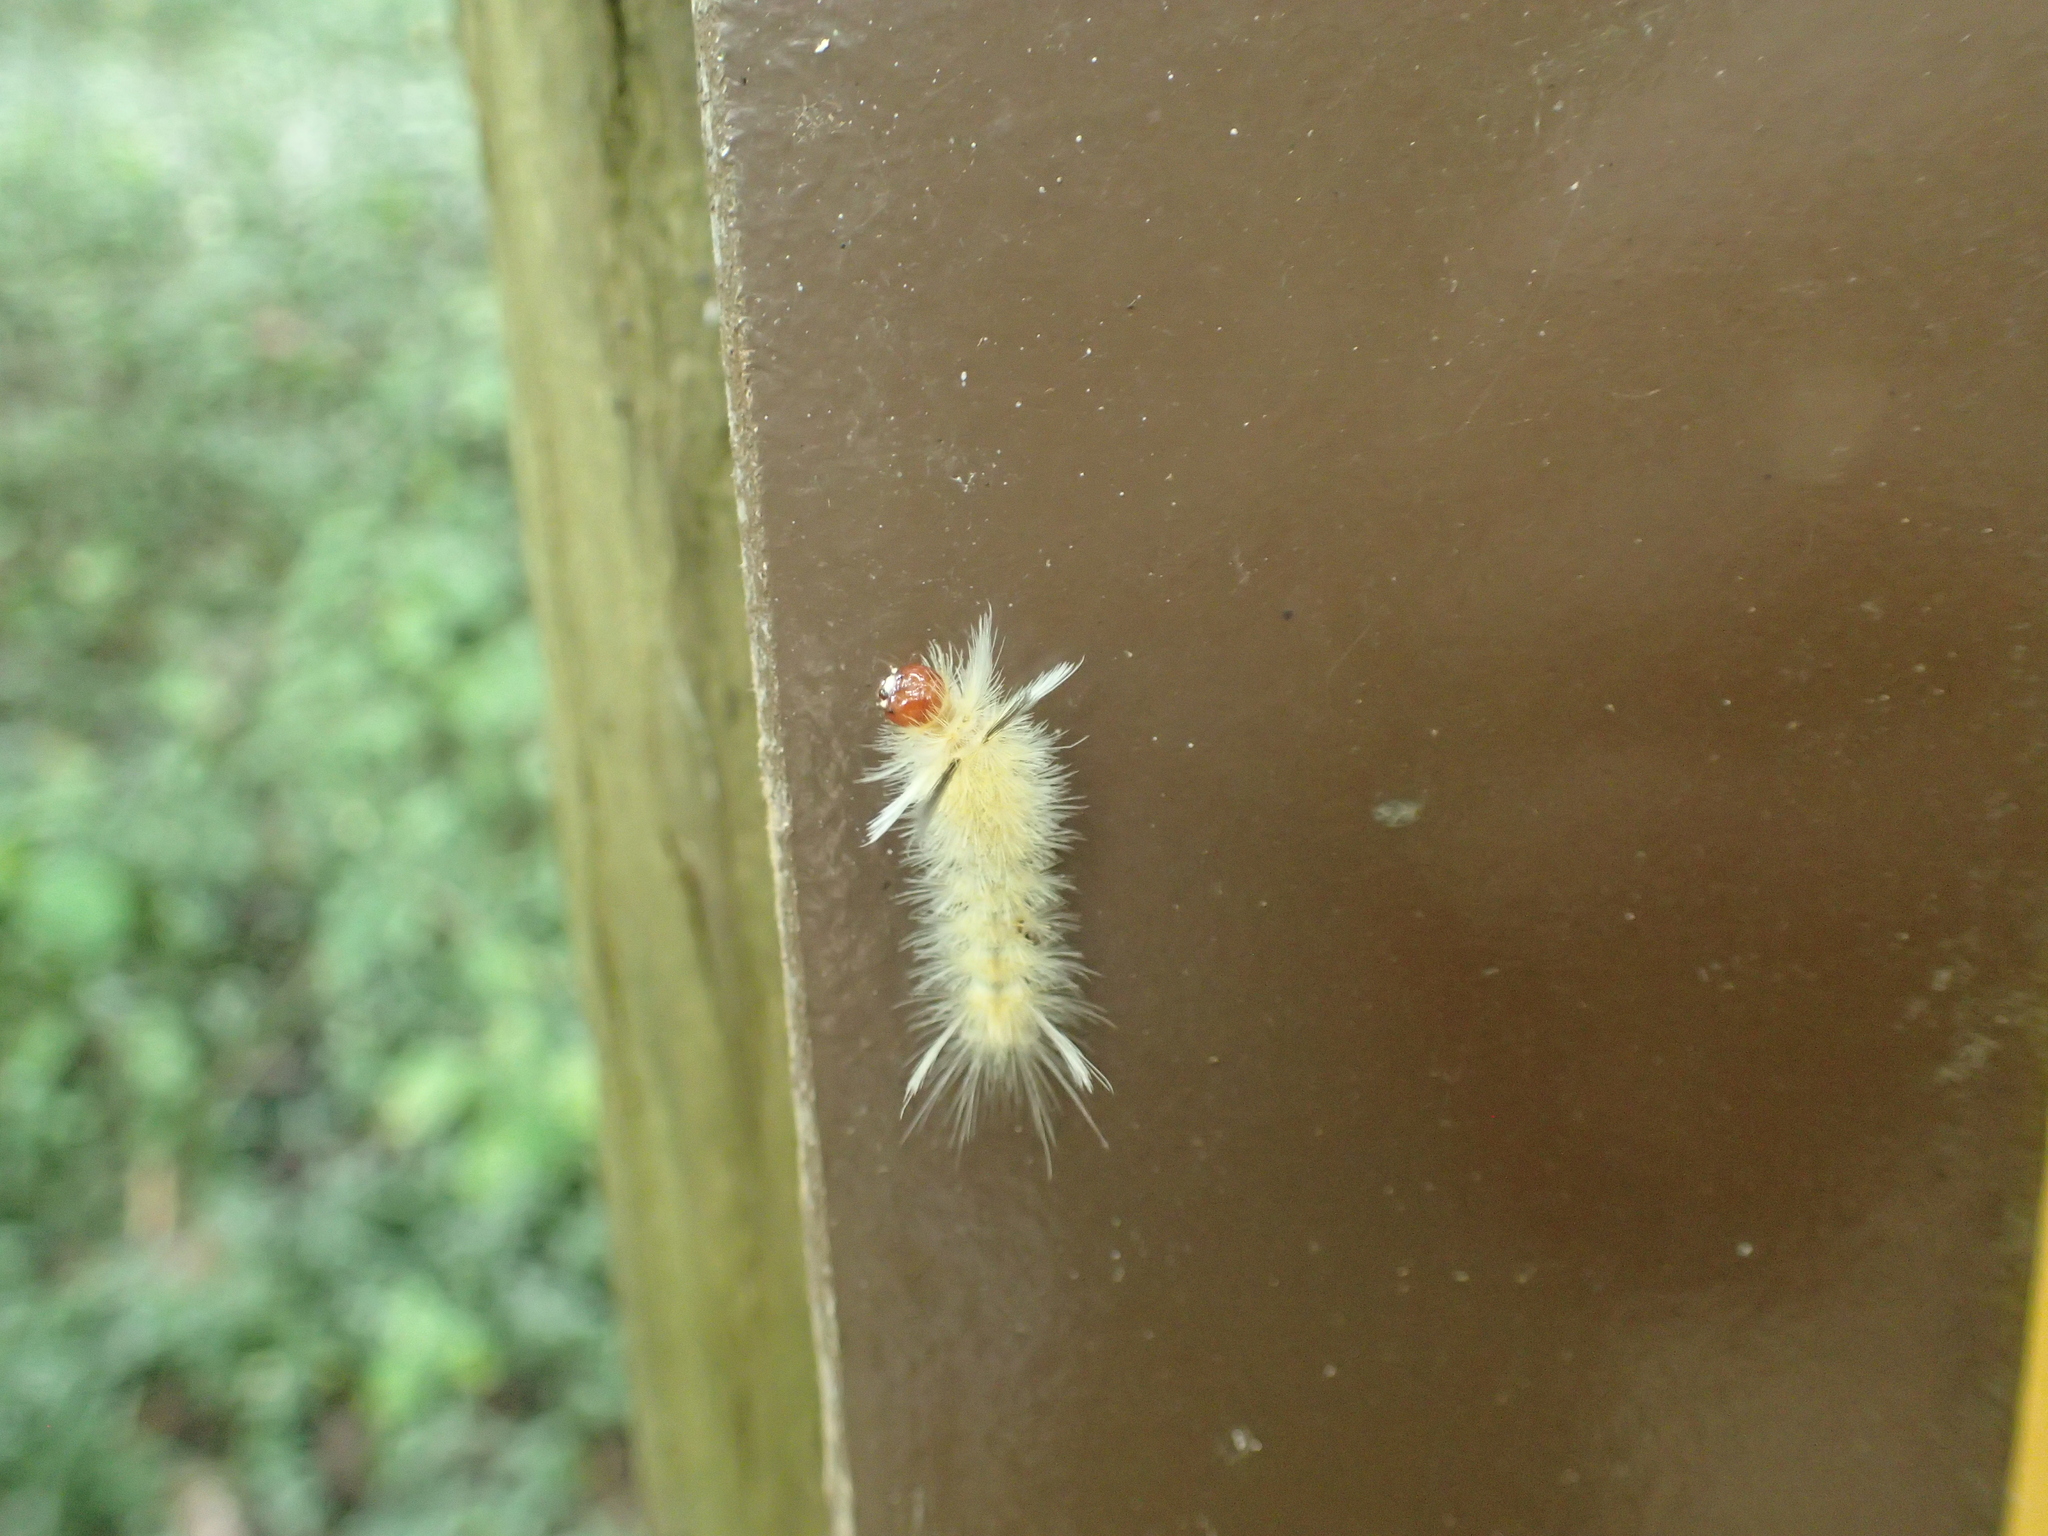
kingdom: Animalia
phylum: Arthropoda
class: Insecta
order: Lepidoptera
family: Erebidae
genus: Halysidota
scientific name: Halysidota tessellaris
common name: Banded tussock moth
